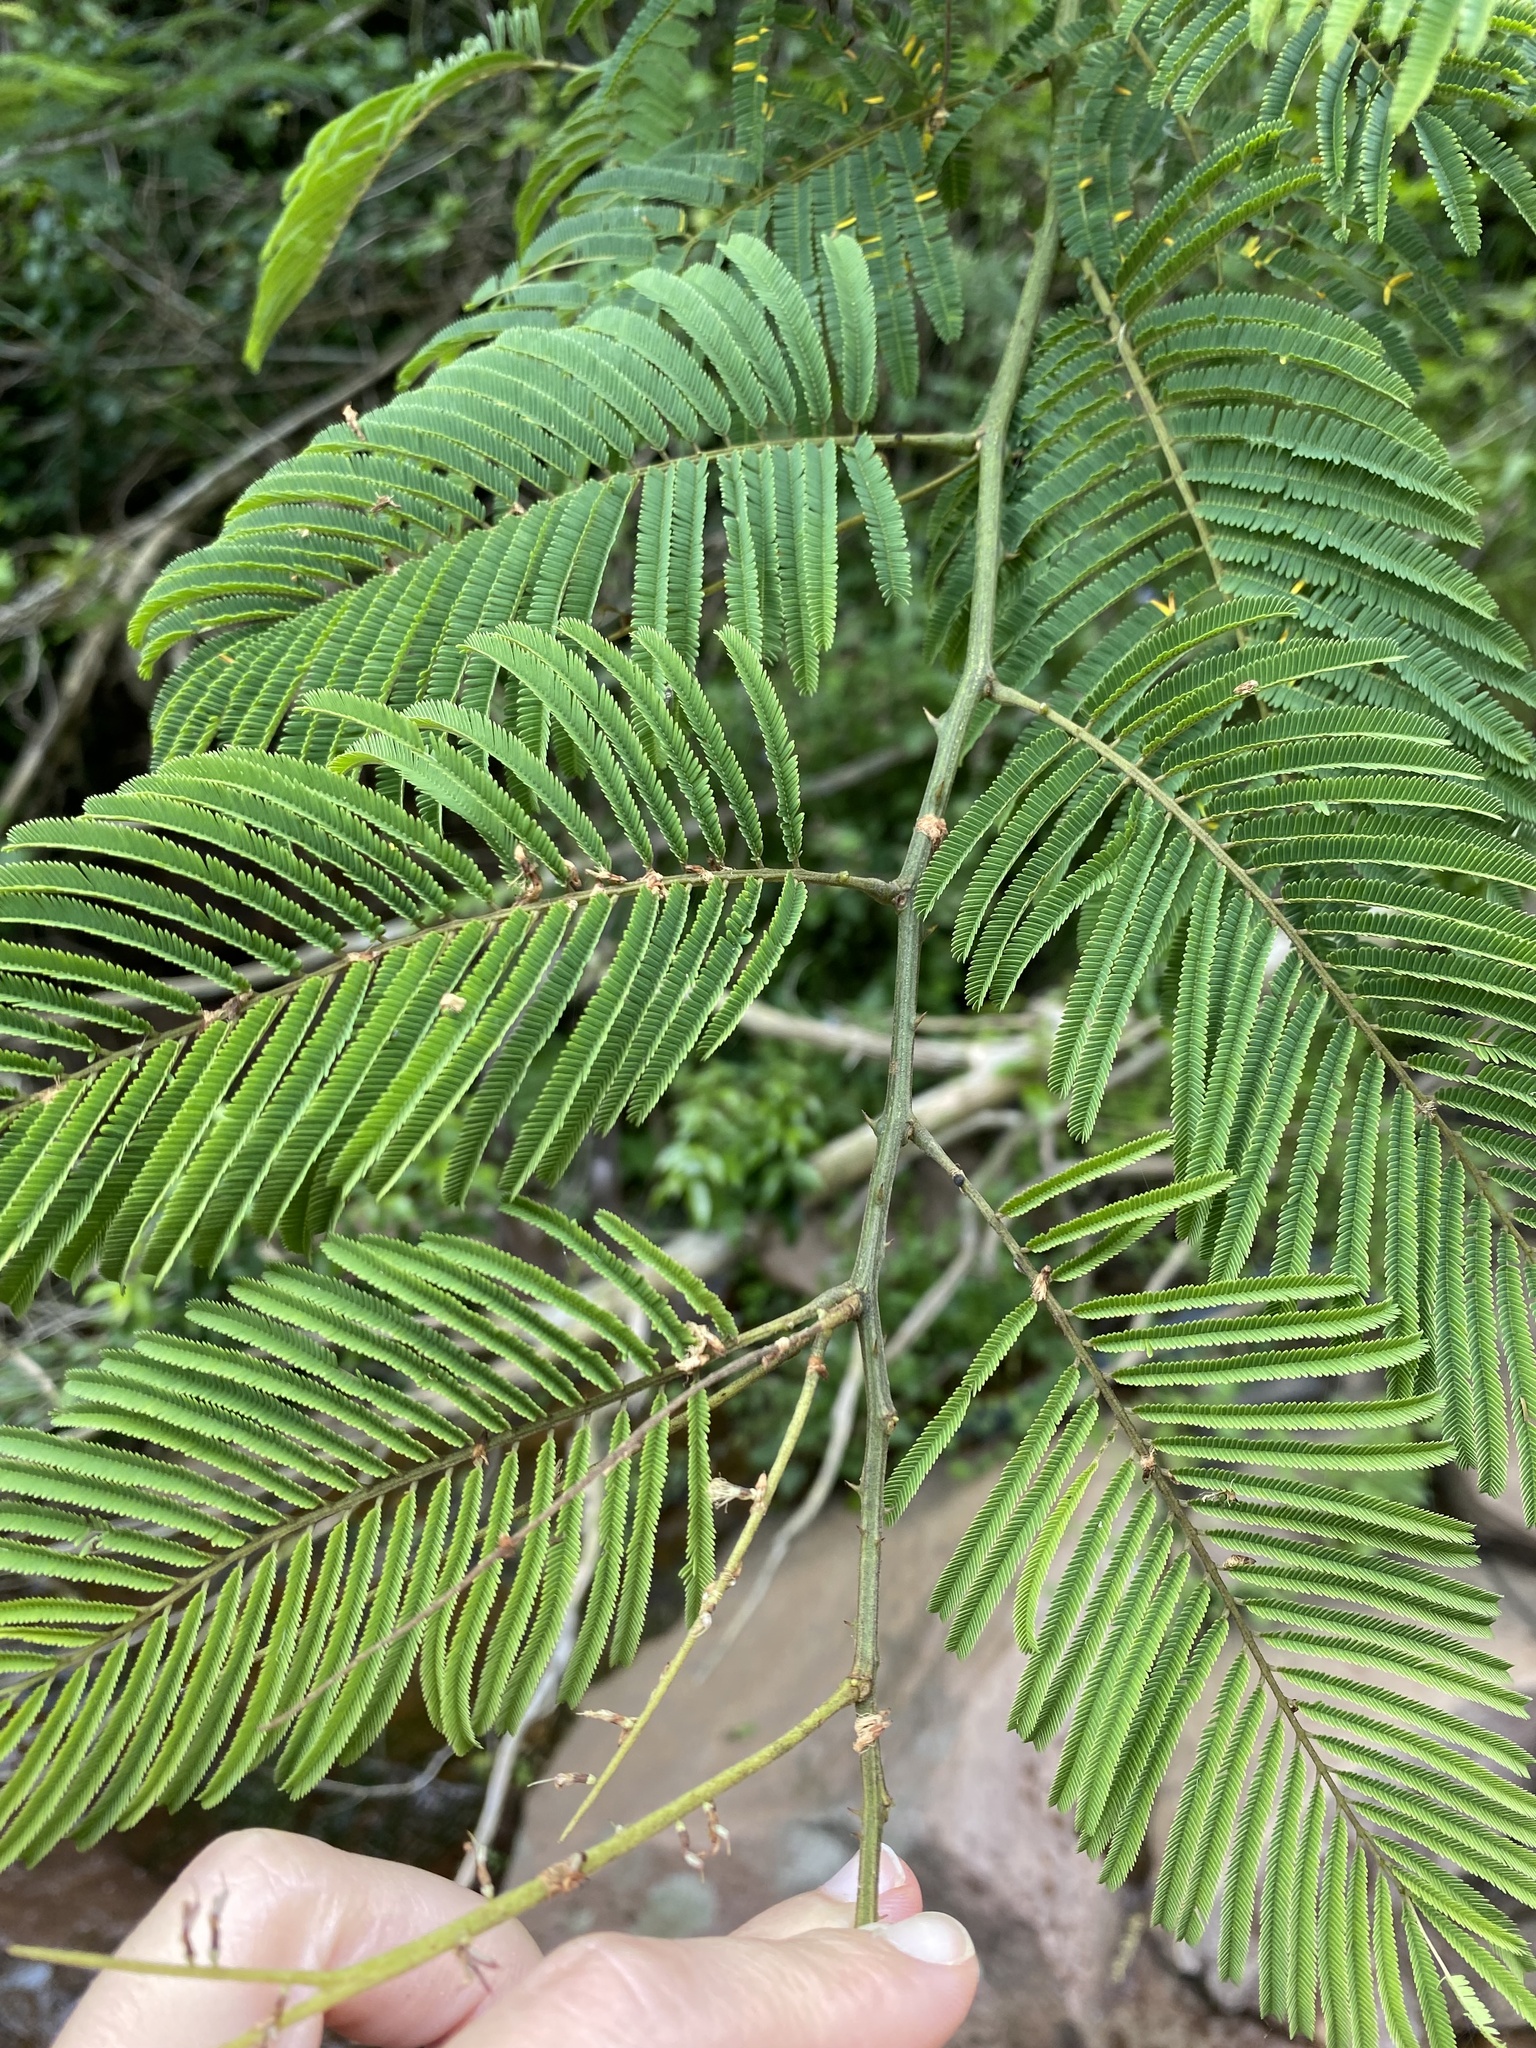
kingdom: Plantae
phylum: Tracheophyta
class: Magnoliopsida
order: Fabales
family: Fabaceae
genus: Senegalia
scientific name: Senegalia ataxacantha
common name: Flame acacia
